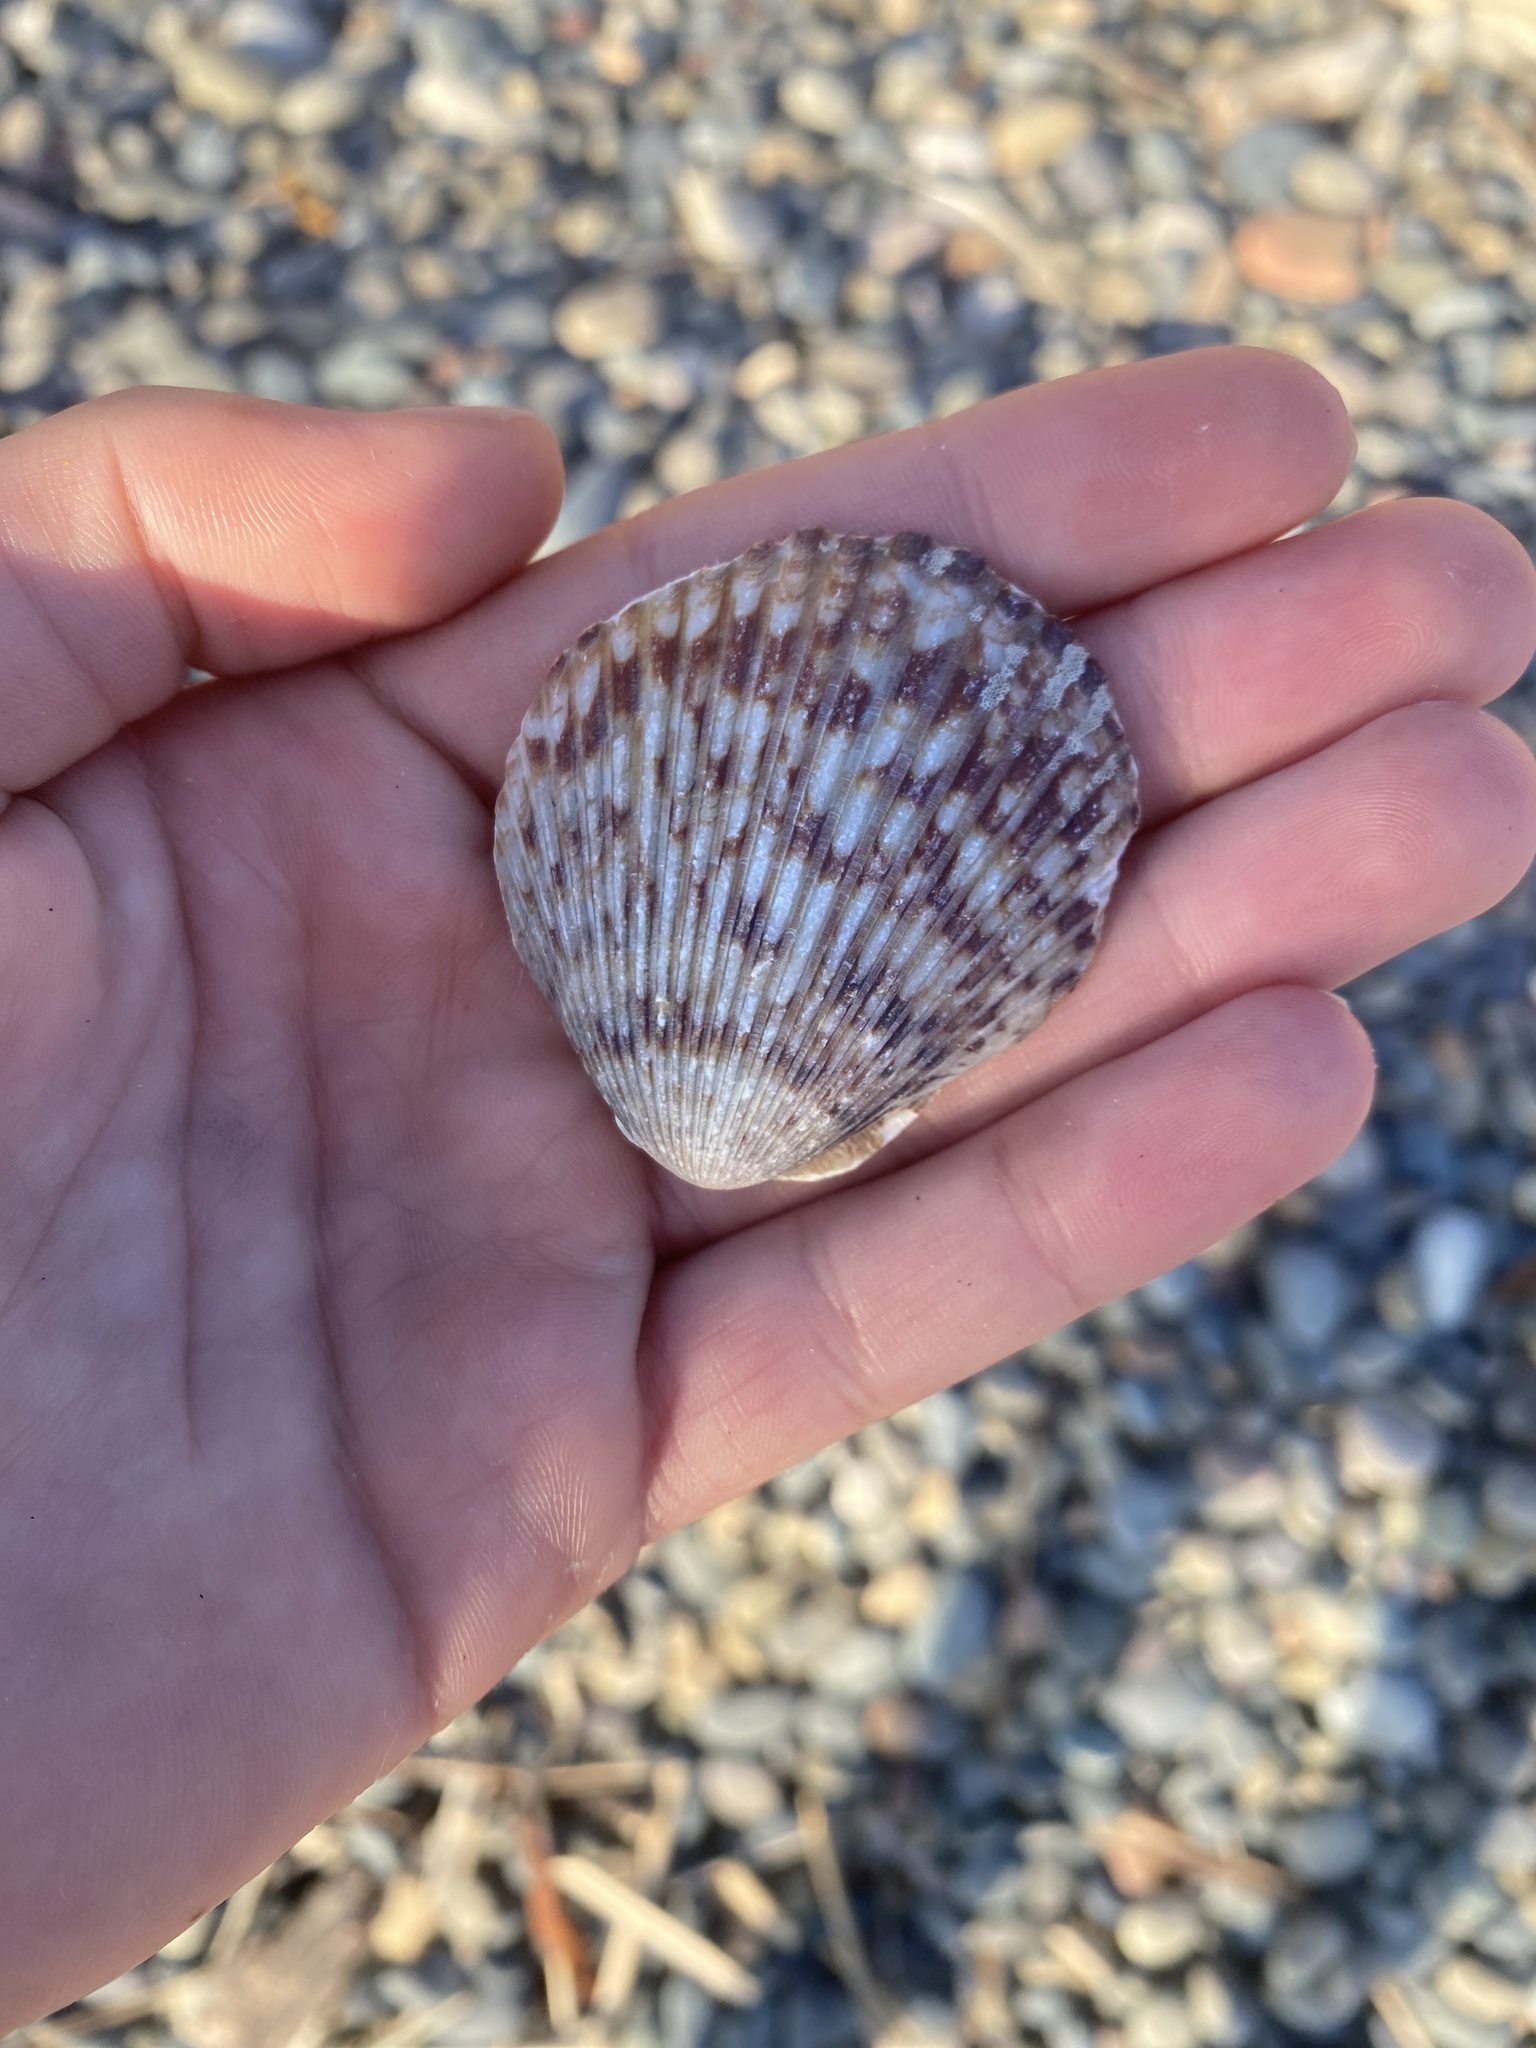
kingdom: Animalia
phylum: Mollusca
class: Bivalvia
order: Pectinida
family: Pectinidae
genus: Argopecten
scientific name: Argopecten ventricosus
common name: Catarina scallop
